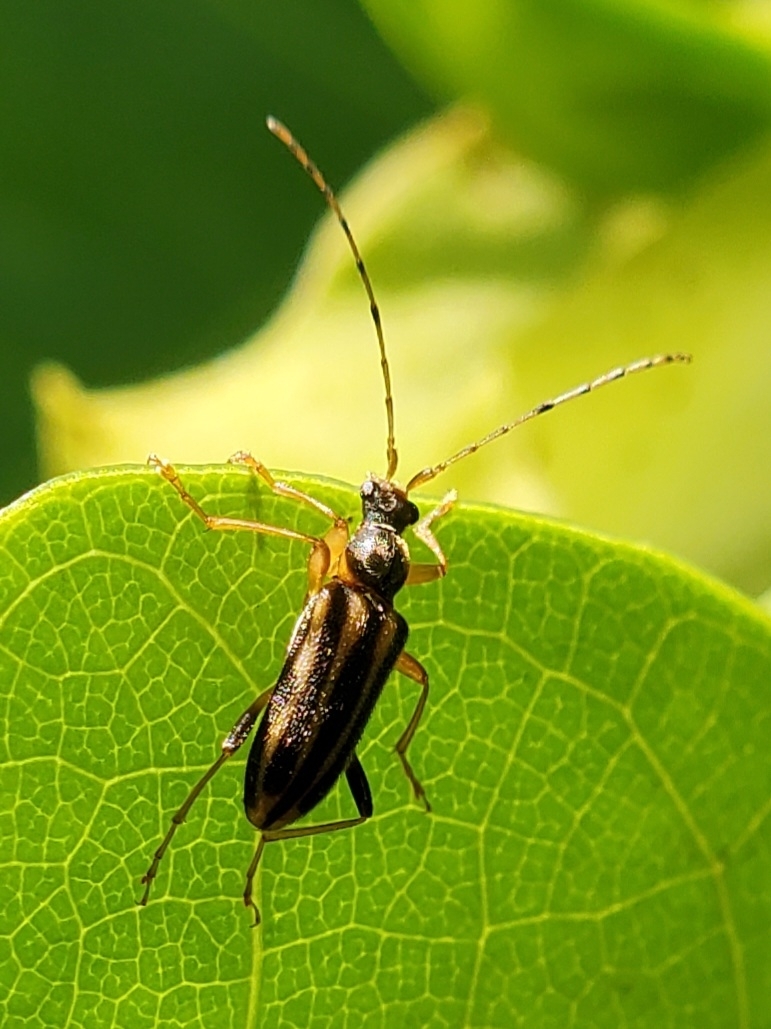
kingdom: Animalia
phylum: Arthropoda
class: Insecta
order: Coleoptera
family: Cerambycidae
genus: Metacmaeops
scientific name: Metacmaeops vittata
